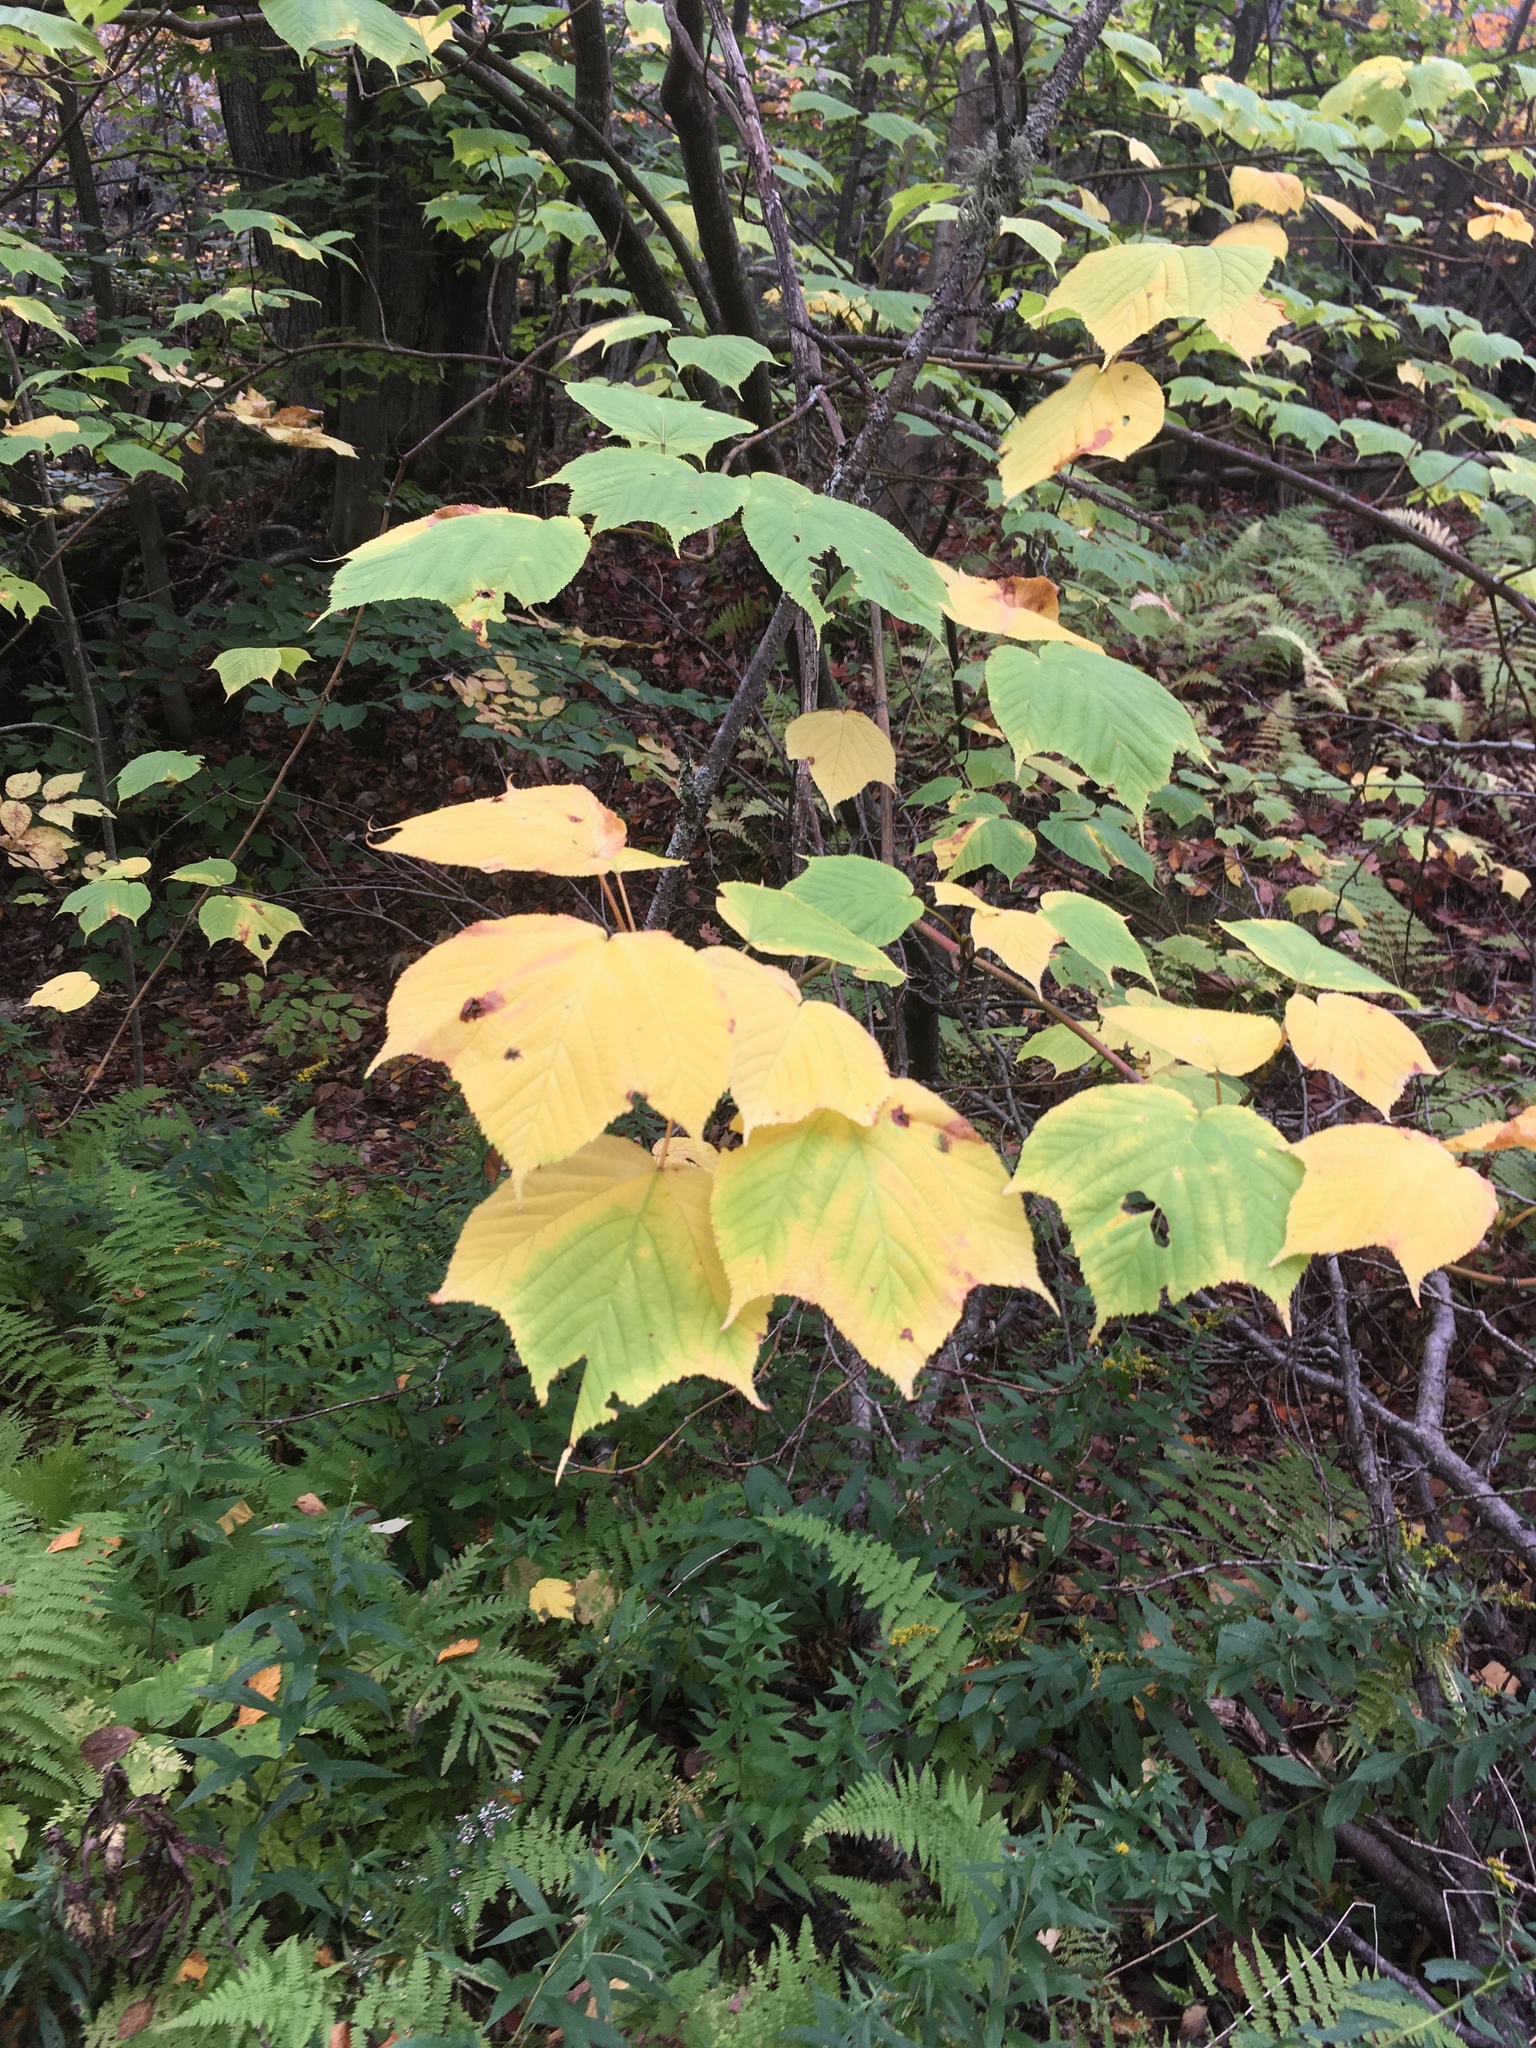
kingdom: Plantae
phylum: Tracheophyta
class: Magnoliopsida
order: Sapindales
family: Sapindaceae
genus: Acer
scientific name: Acer pensylvanicum
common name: Moosewood
